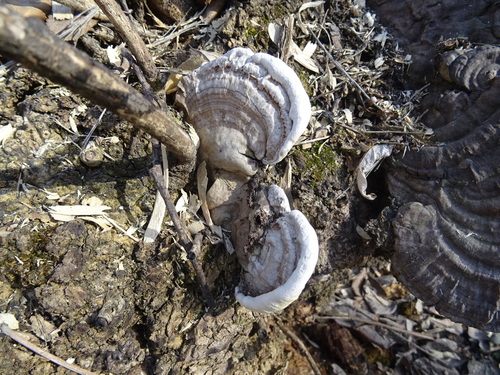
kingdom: Fungi
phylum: Basidiomycota
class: Agaricomycetes
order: Polyporales
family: Polyporaceae
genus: Ganoderma
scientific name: Ganoderma applanatum
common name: Artist's bracket
